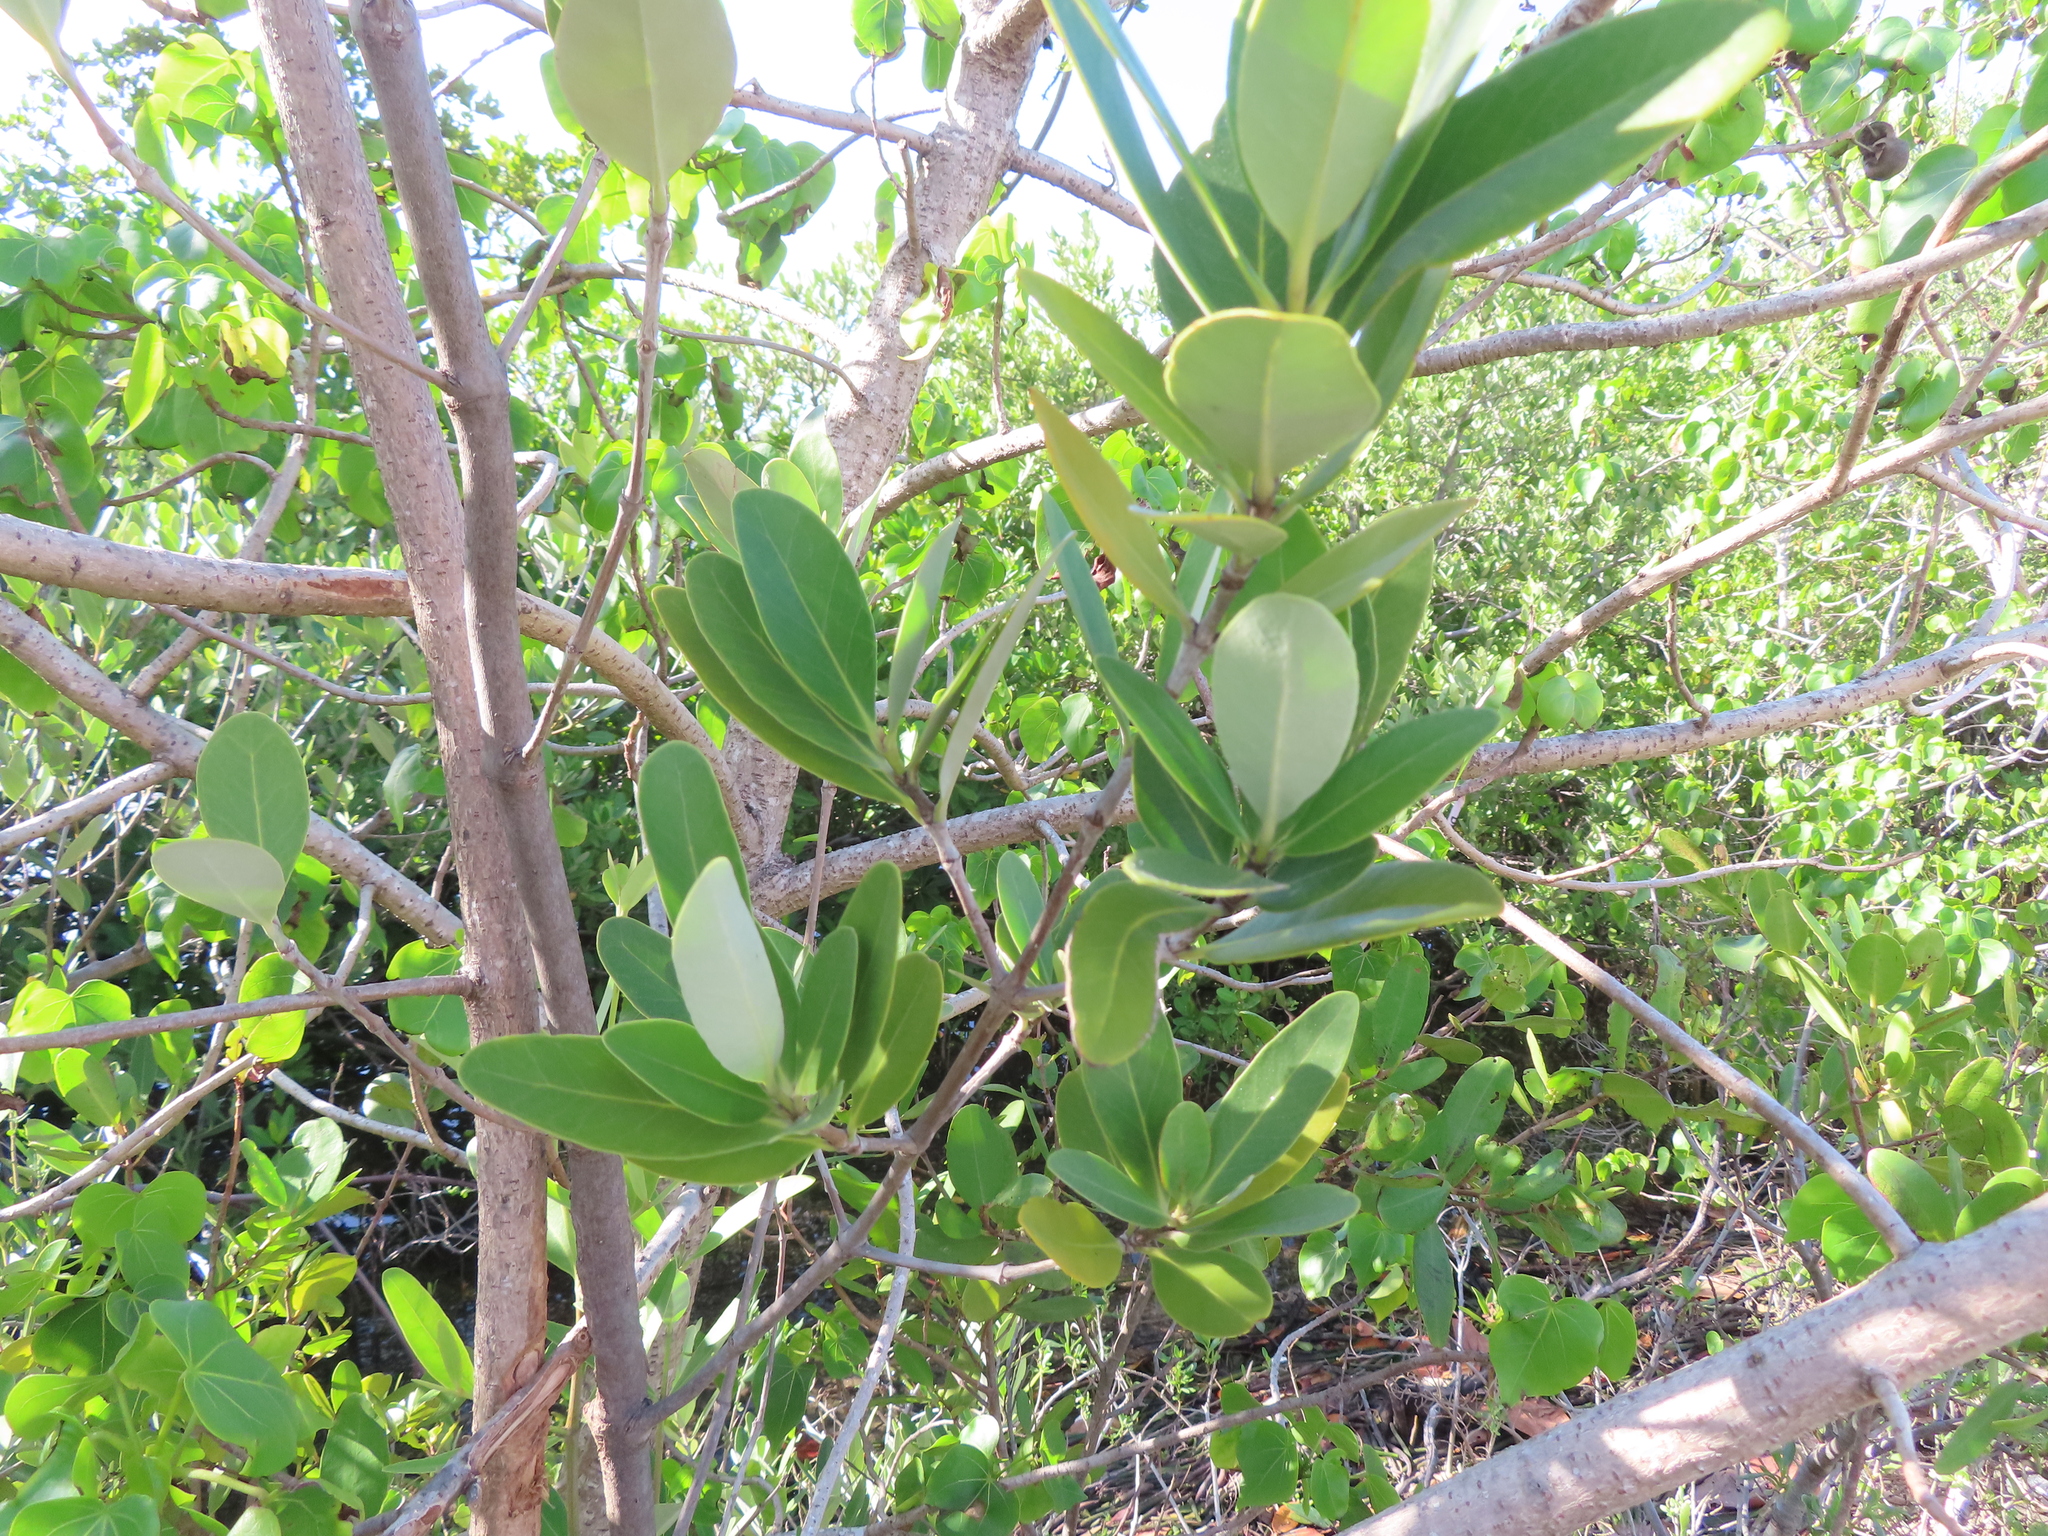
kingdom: Plantae
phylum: Tracheophyta
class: Magnoliopsida
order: Lamiales
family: Acanthaceae
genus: Avicennia
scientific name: Avicennia germinans
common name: Black mangrove
